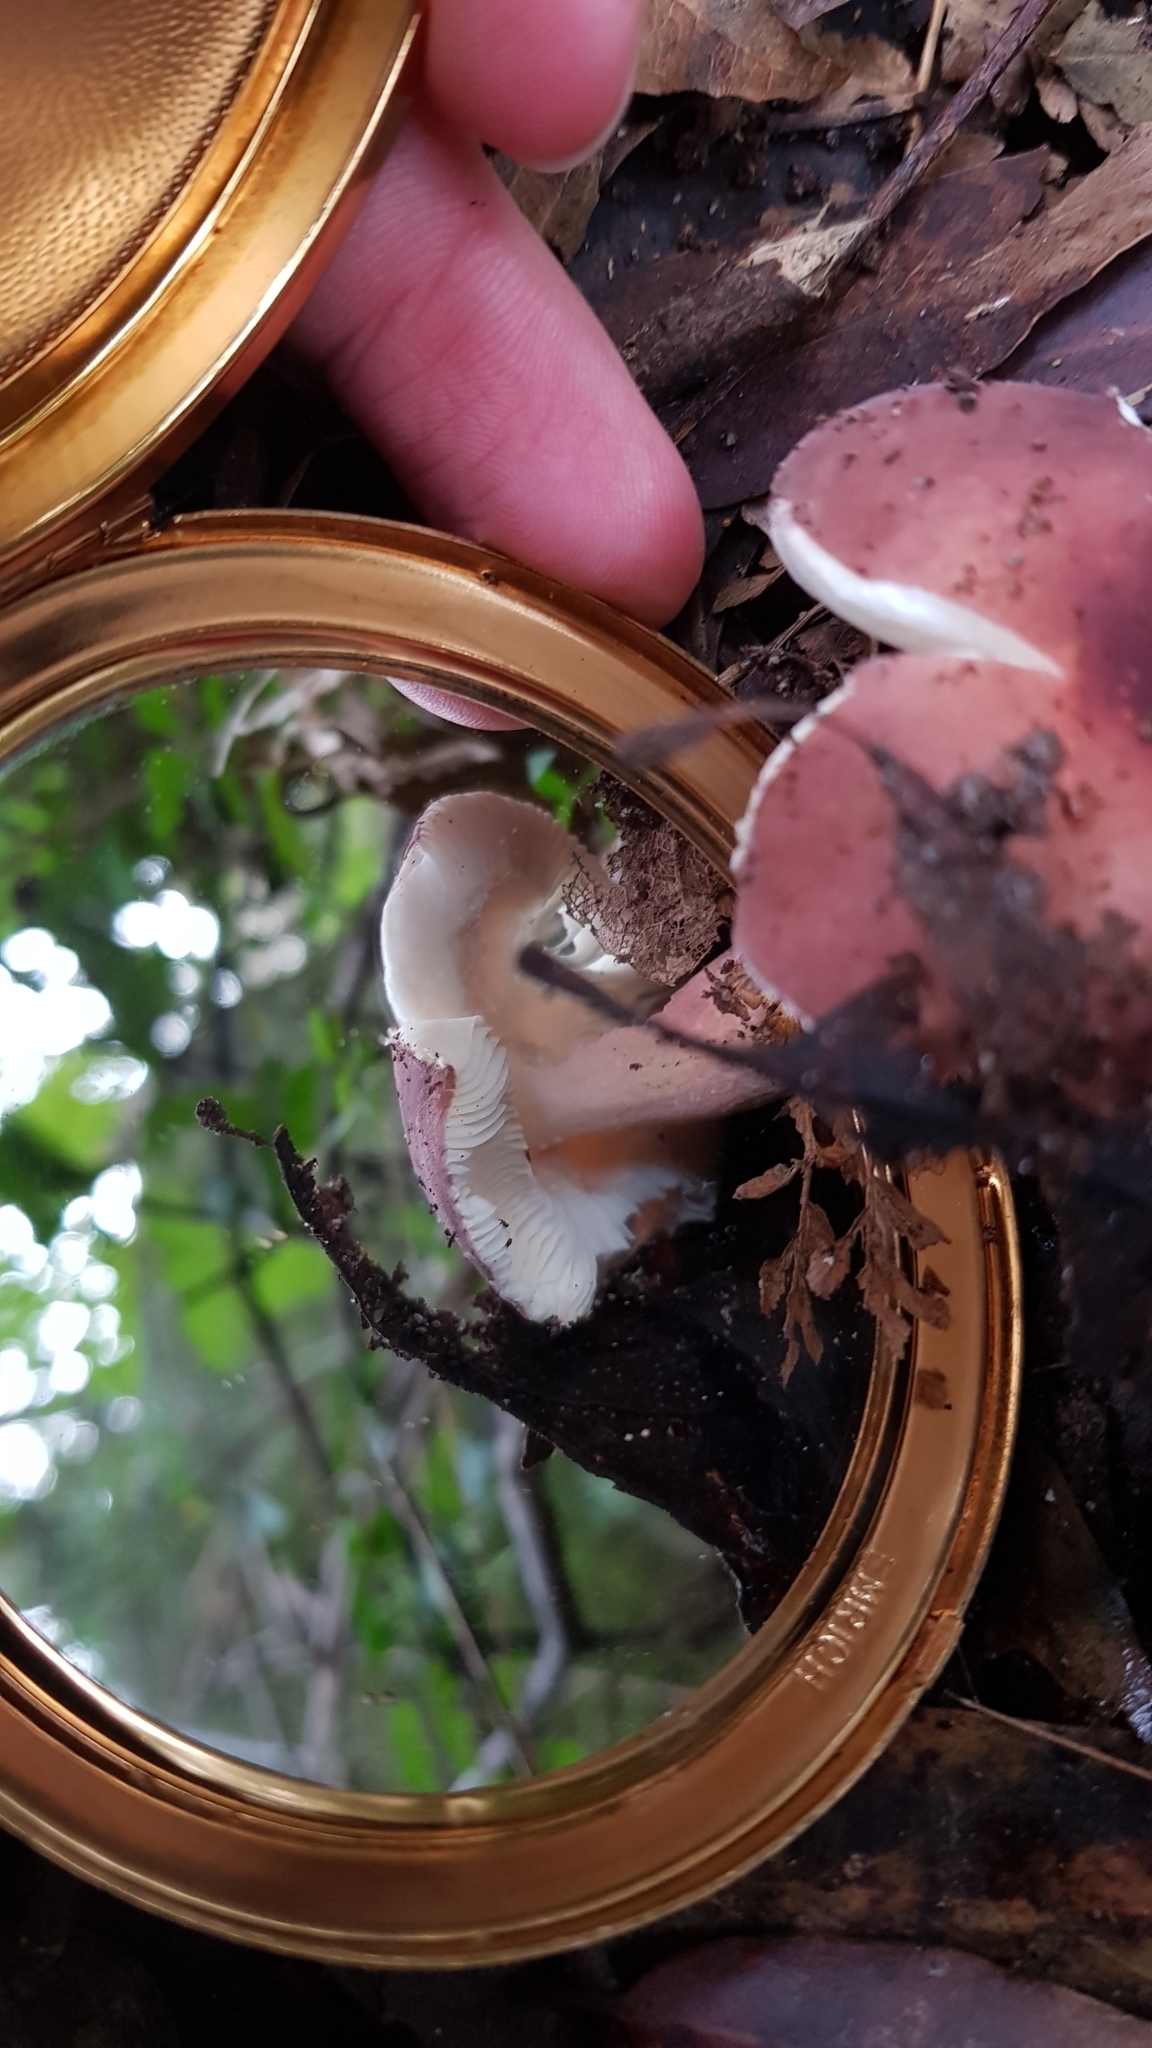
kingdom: Fungi
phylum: Basidiomycota
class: Agaricomycetes
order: Russulales
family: Russulaceae
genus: Russula
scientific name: Russula clelandii
